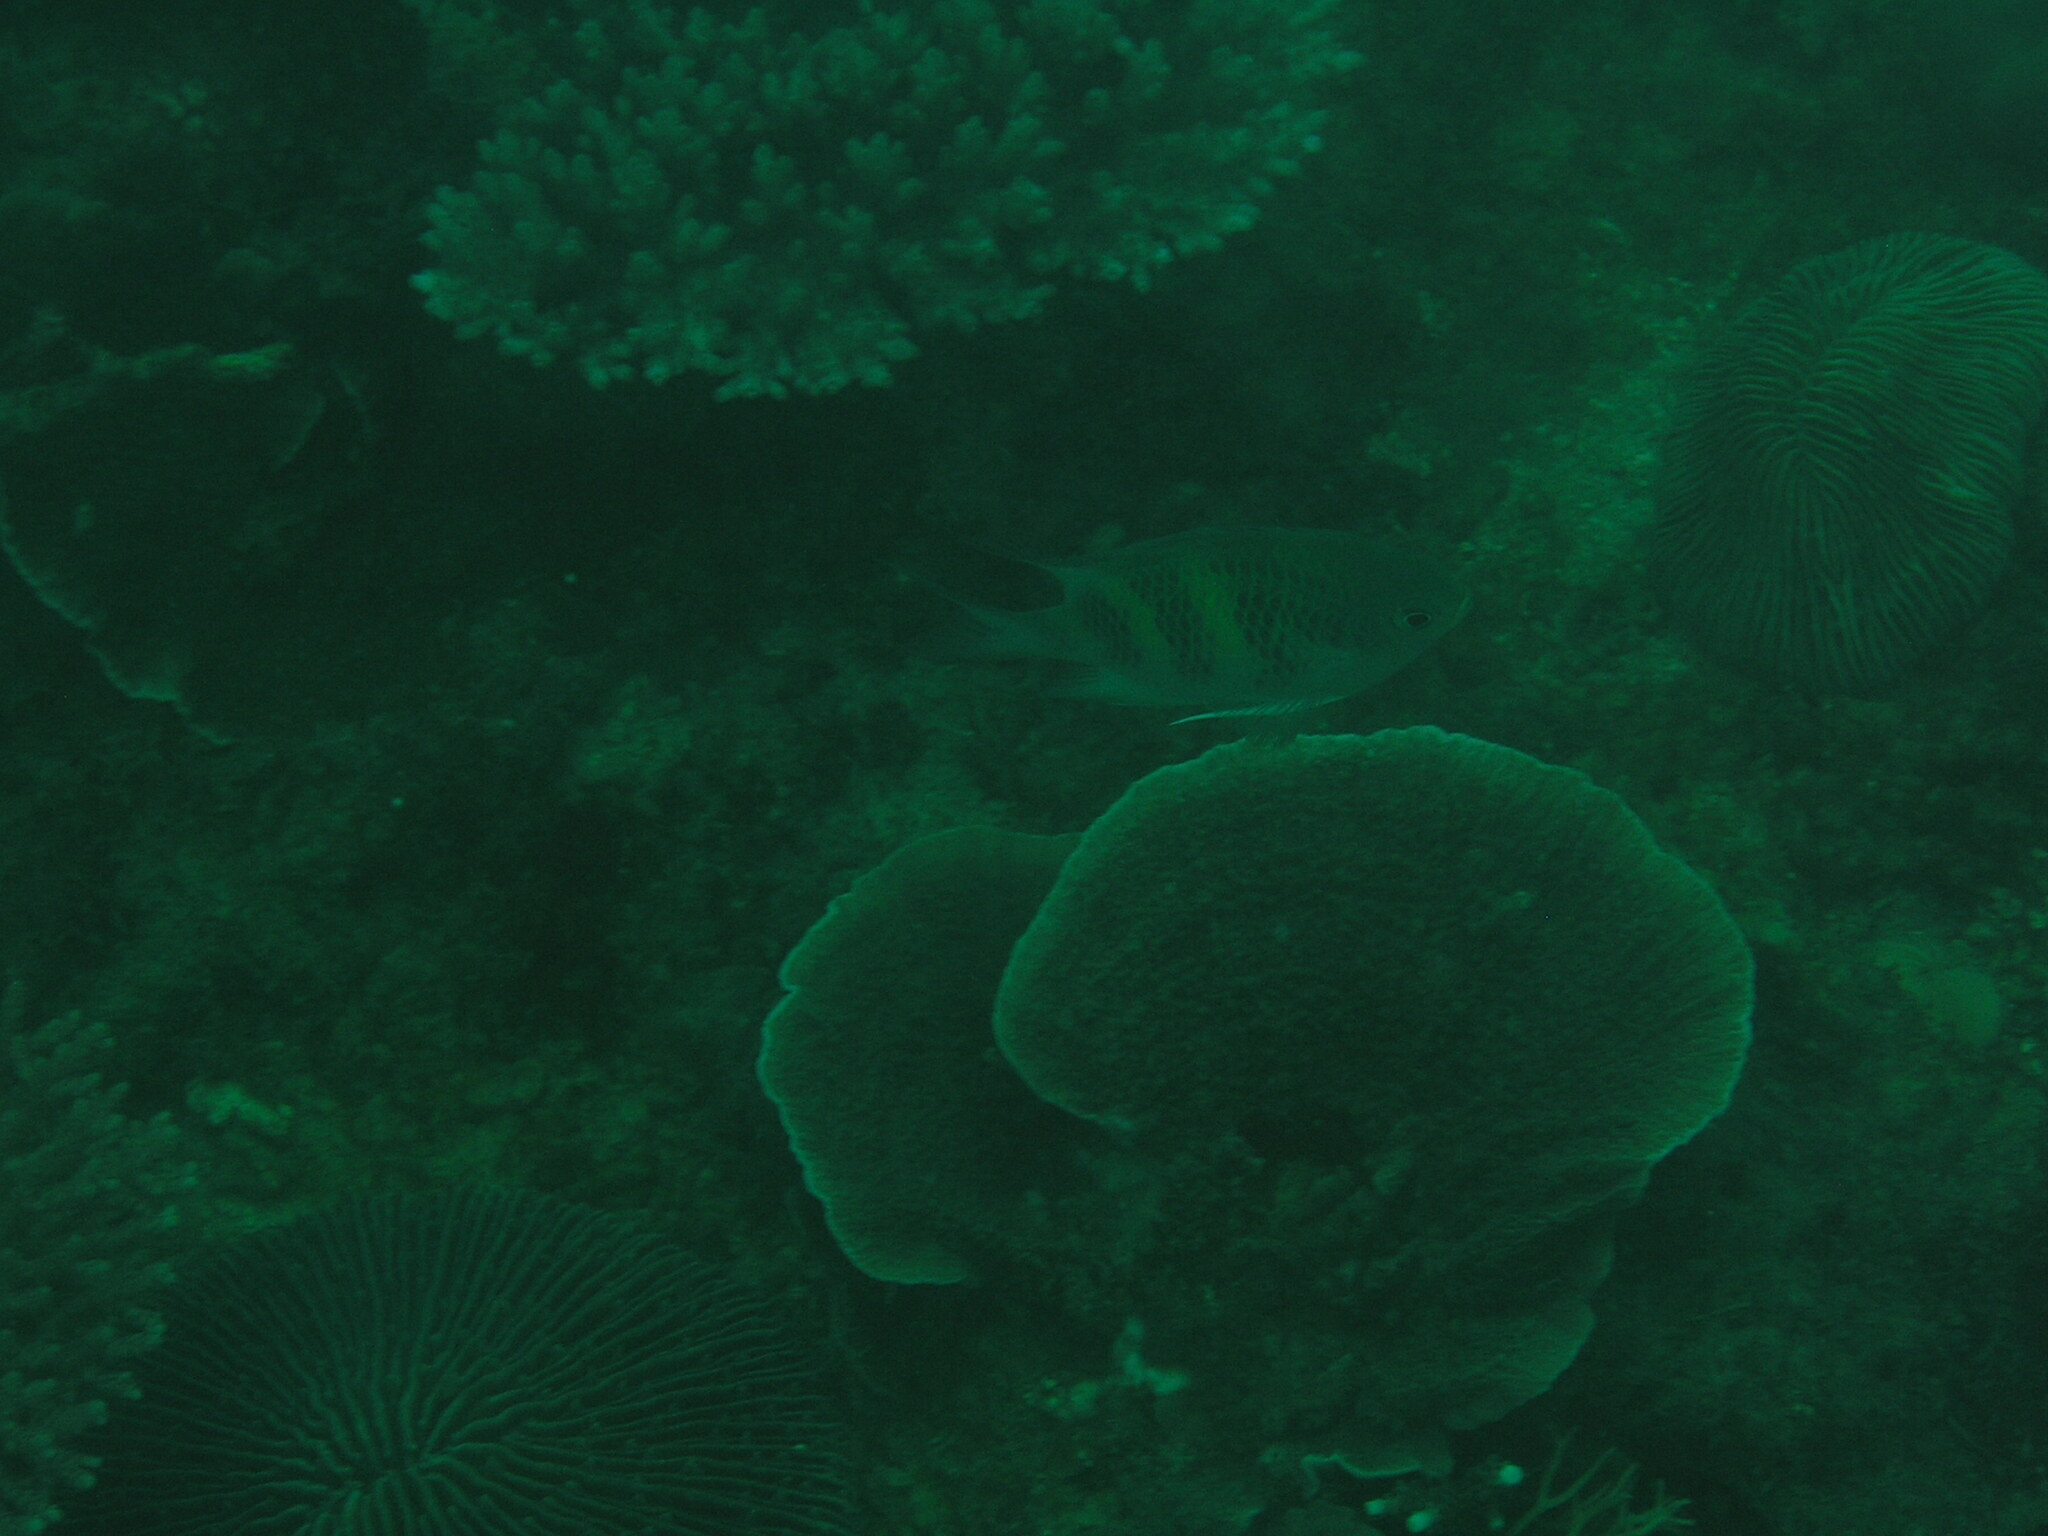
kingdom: Animalia
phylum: Chordata
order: Perciformes
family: Pomacentridae
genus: Amblyglyphidodon
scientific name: Amblyglyphidodon curacao
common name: Staghorn damsel
